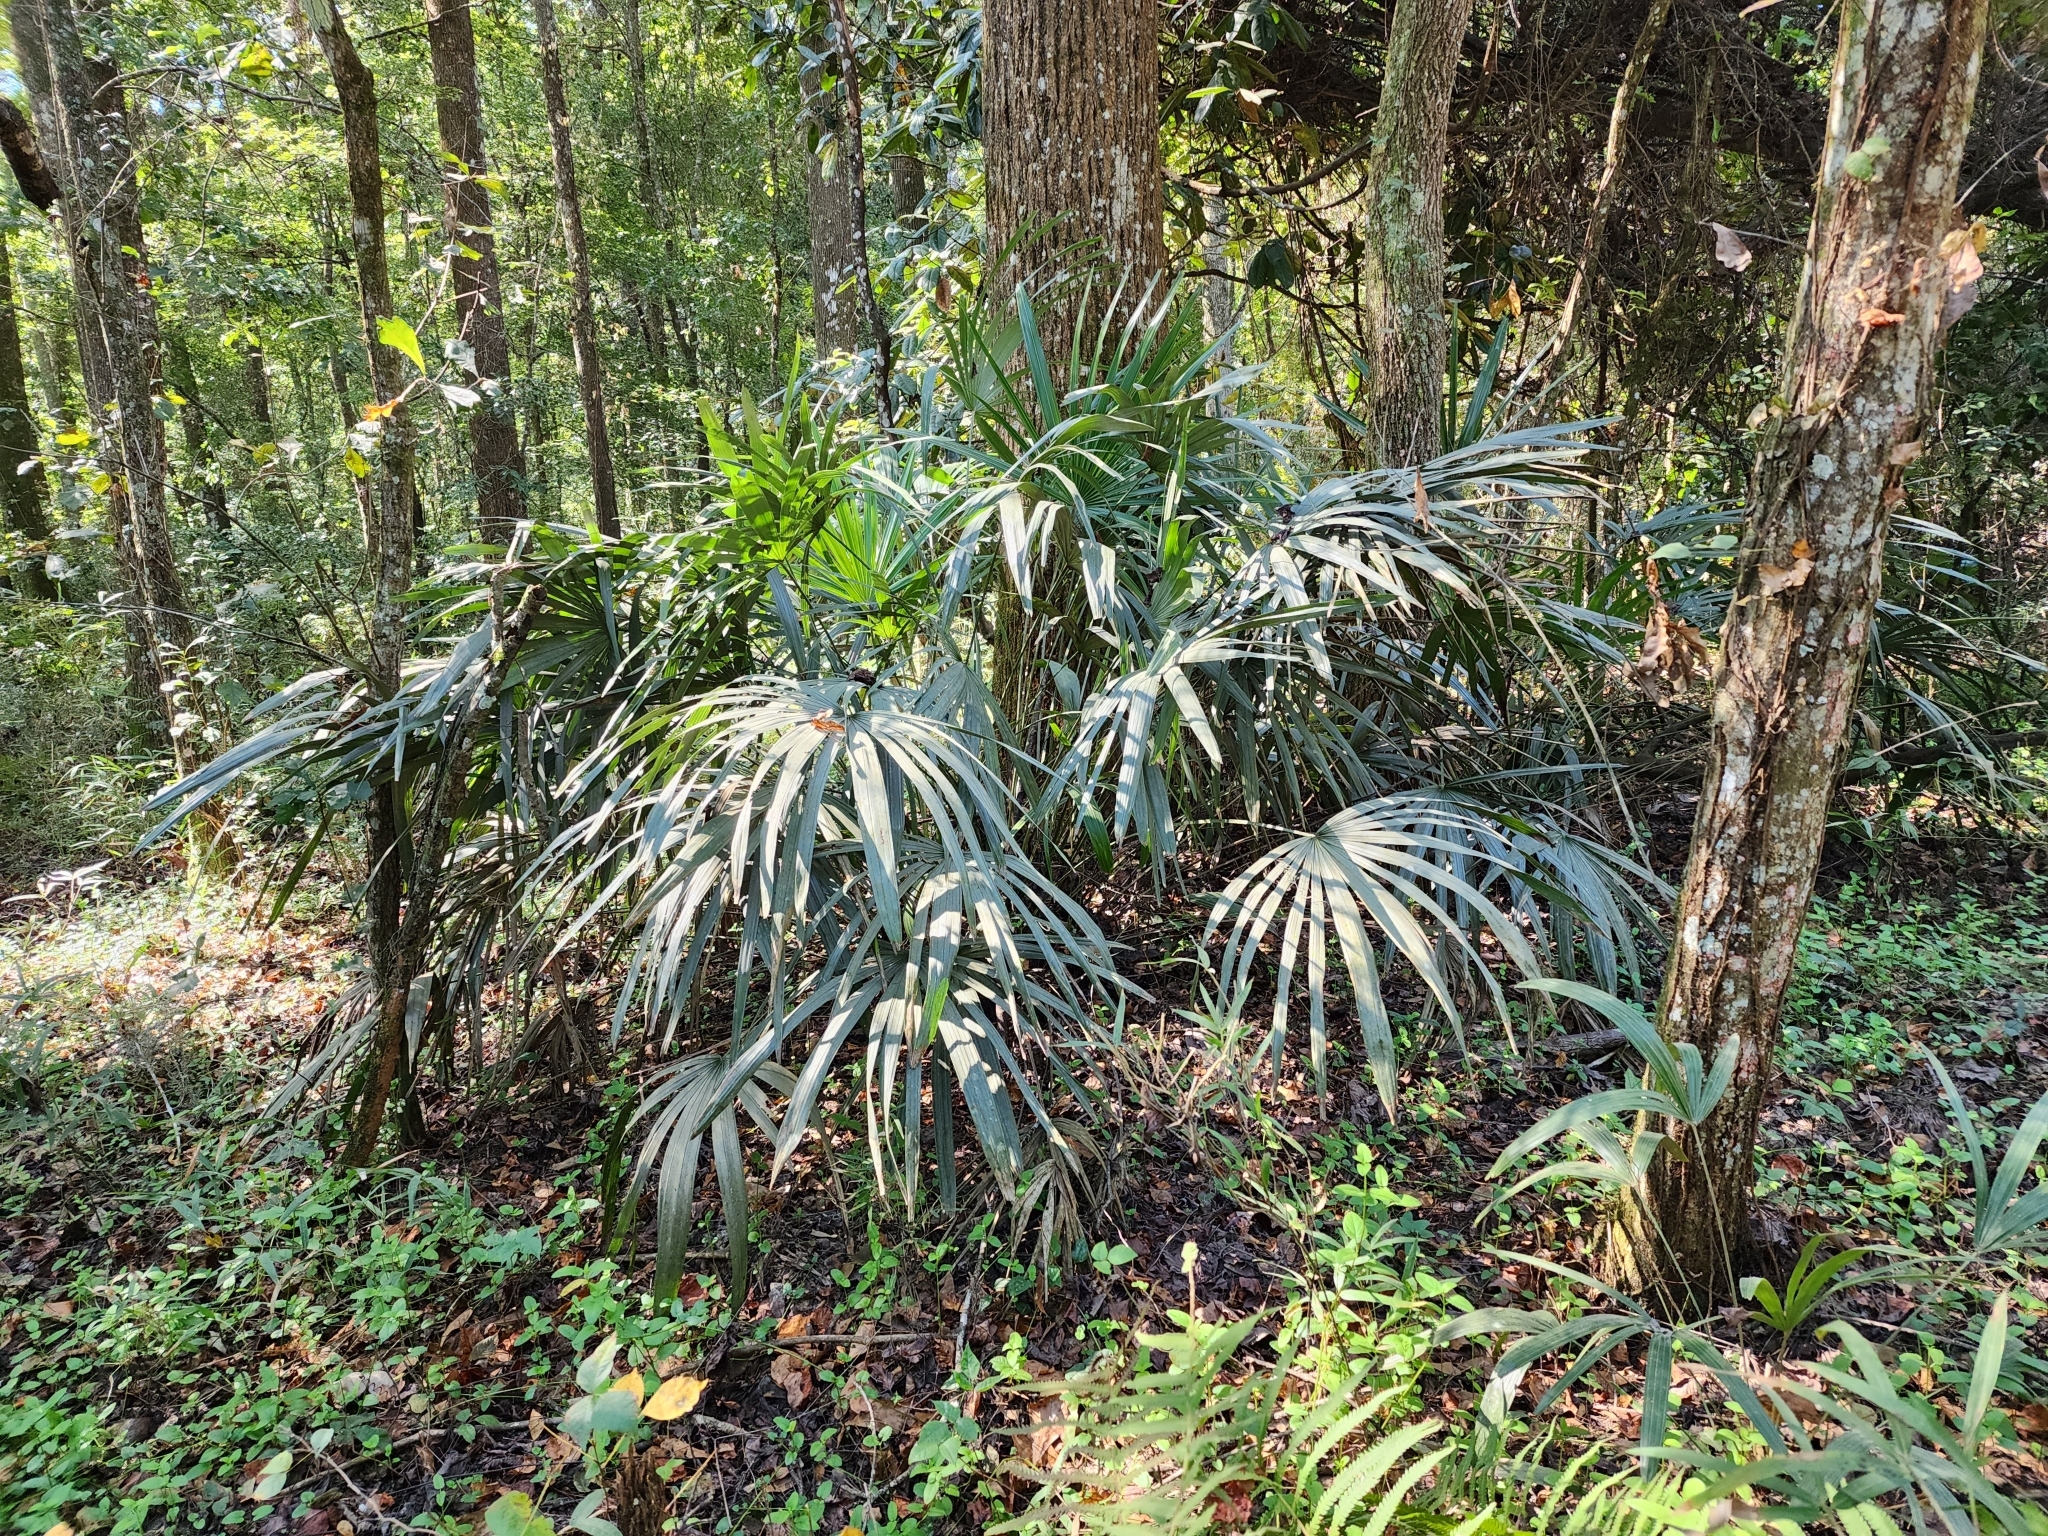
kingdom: Plantae
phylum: Tracheophyta
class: Liliopsida
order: Arecales
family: Arecaceae
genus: Rhapidophyllum
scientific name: Rhapidophyllum hystrix
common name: Porcupine palm
